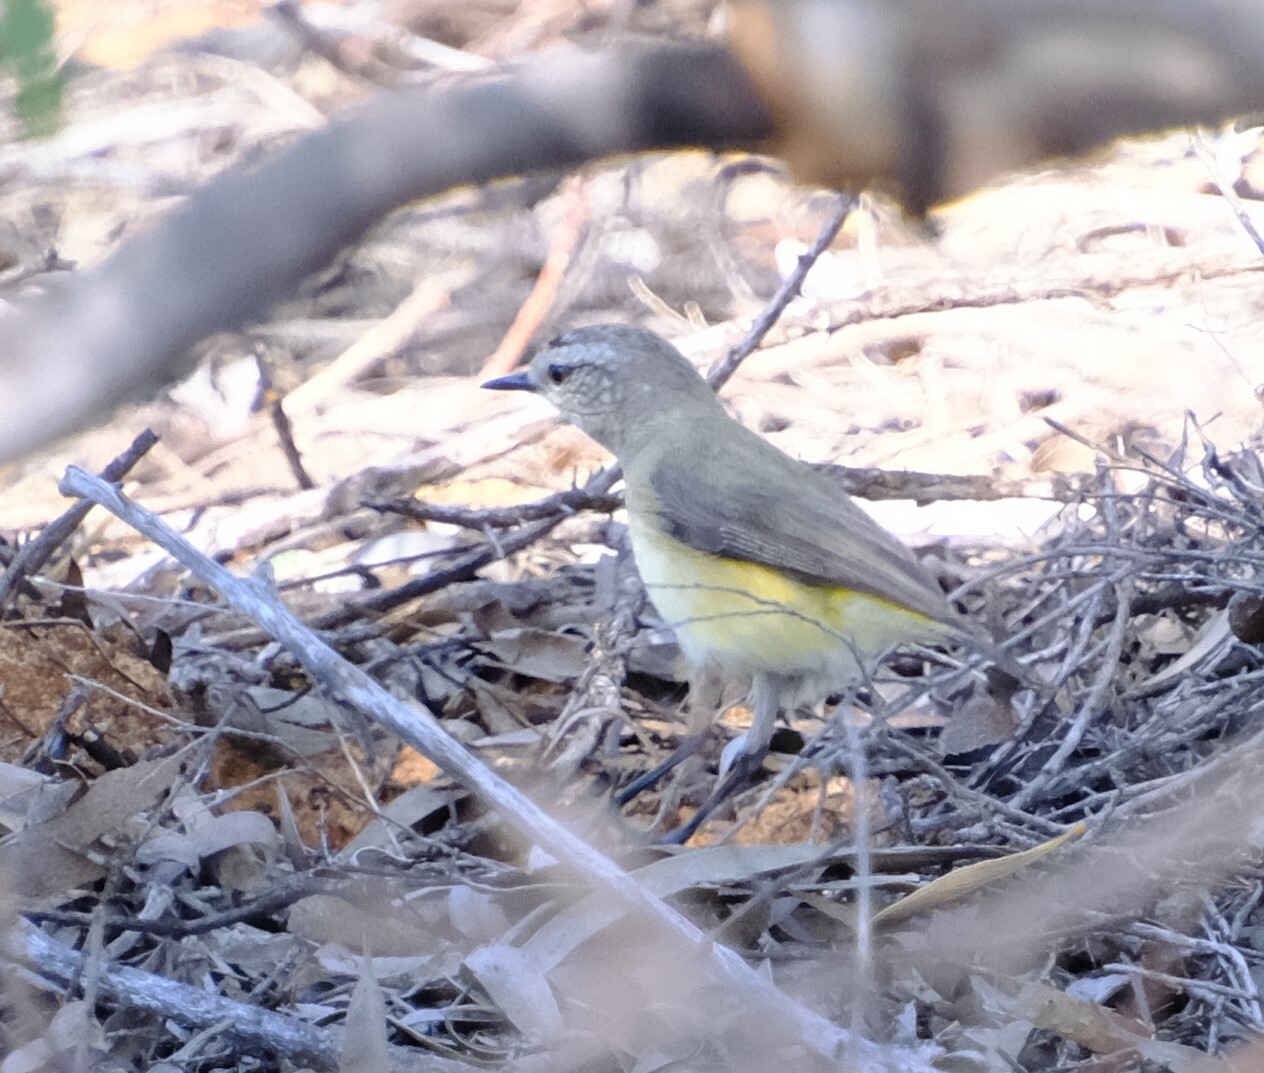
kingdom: Animalia
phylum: Chordata
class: Aves
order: Passeriformes
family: Acanthizidae
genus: Acanthiza
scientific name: Acanthiza chrysorrhoa
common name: Yellow-rumped thornbill
